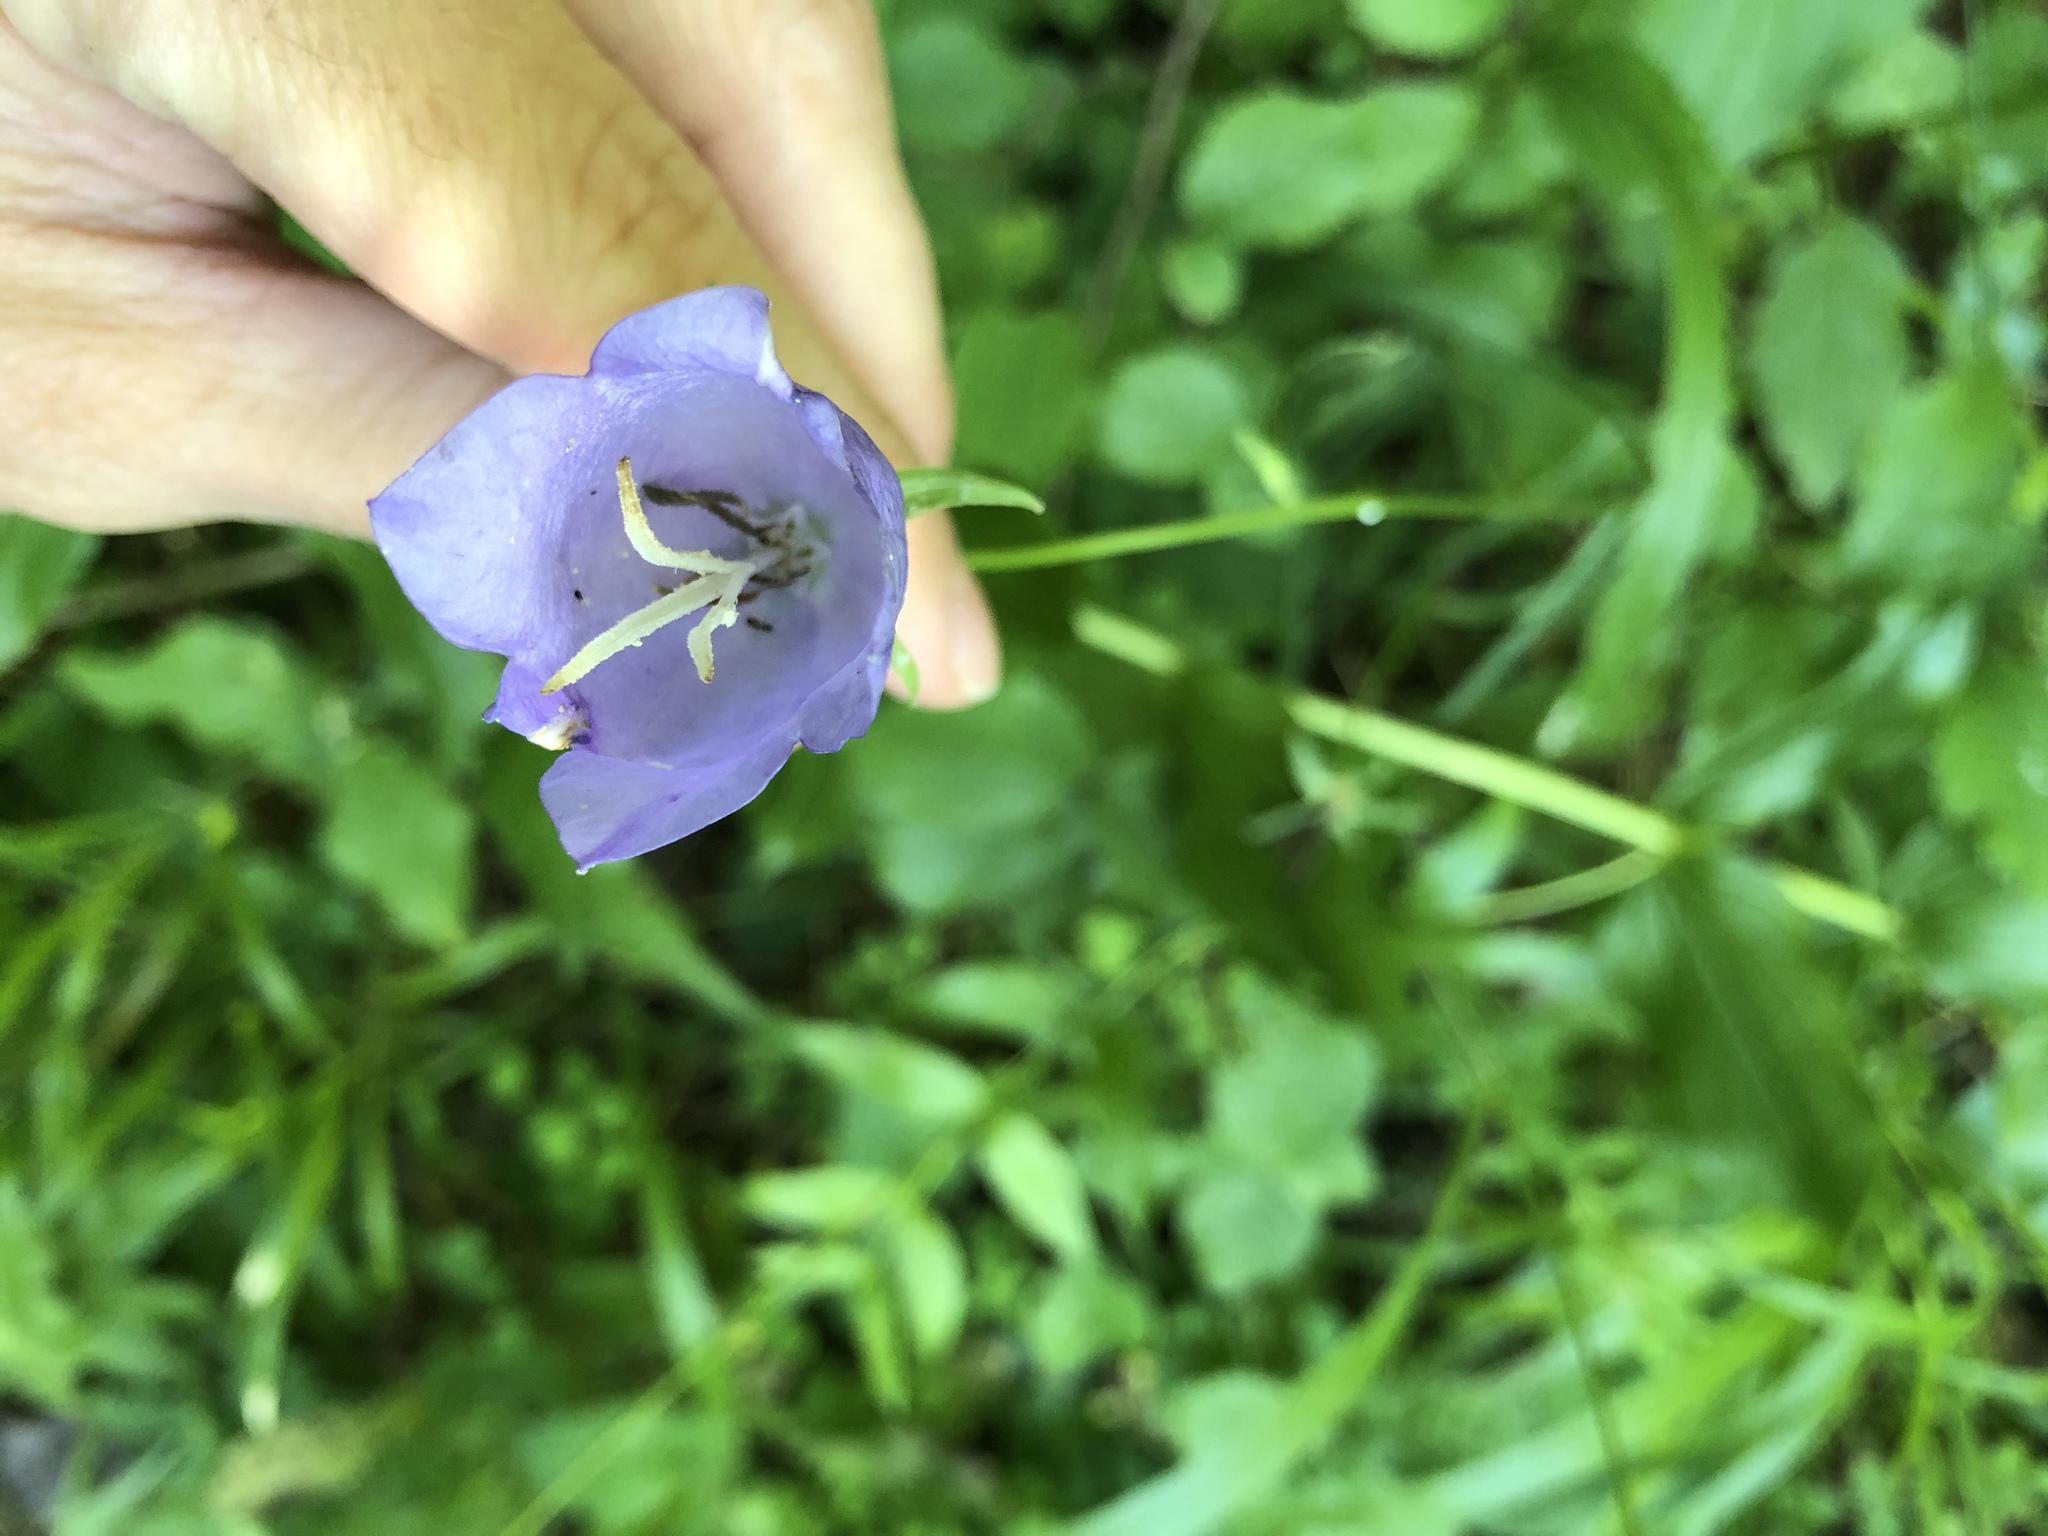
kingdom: Plantae
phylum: Tracheophyta
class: Magnoliopsida
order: Asterales
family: Campanulaceae
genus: Campanula
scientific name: Campanula persicifolia
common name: Peach-leaved bellflower
